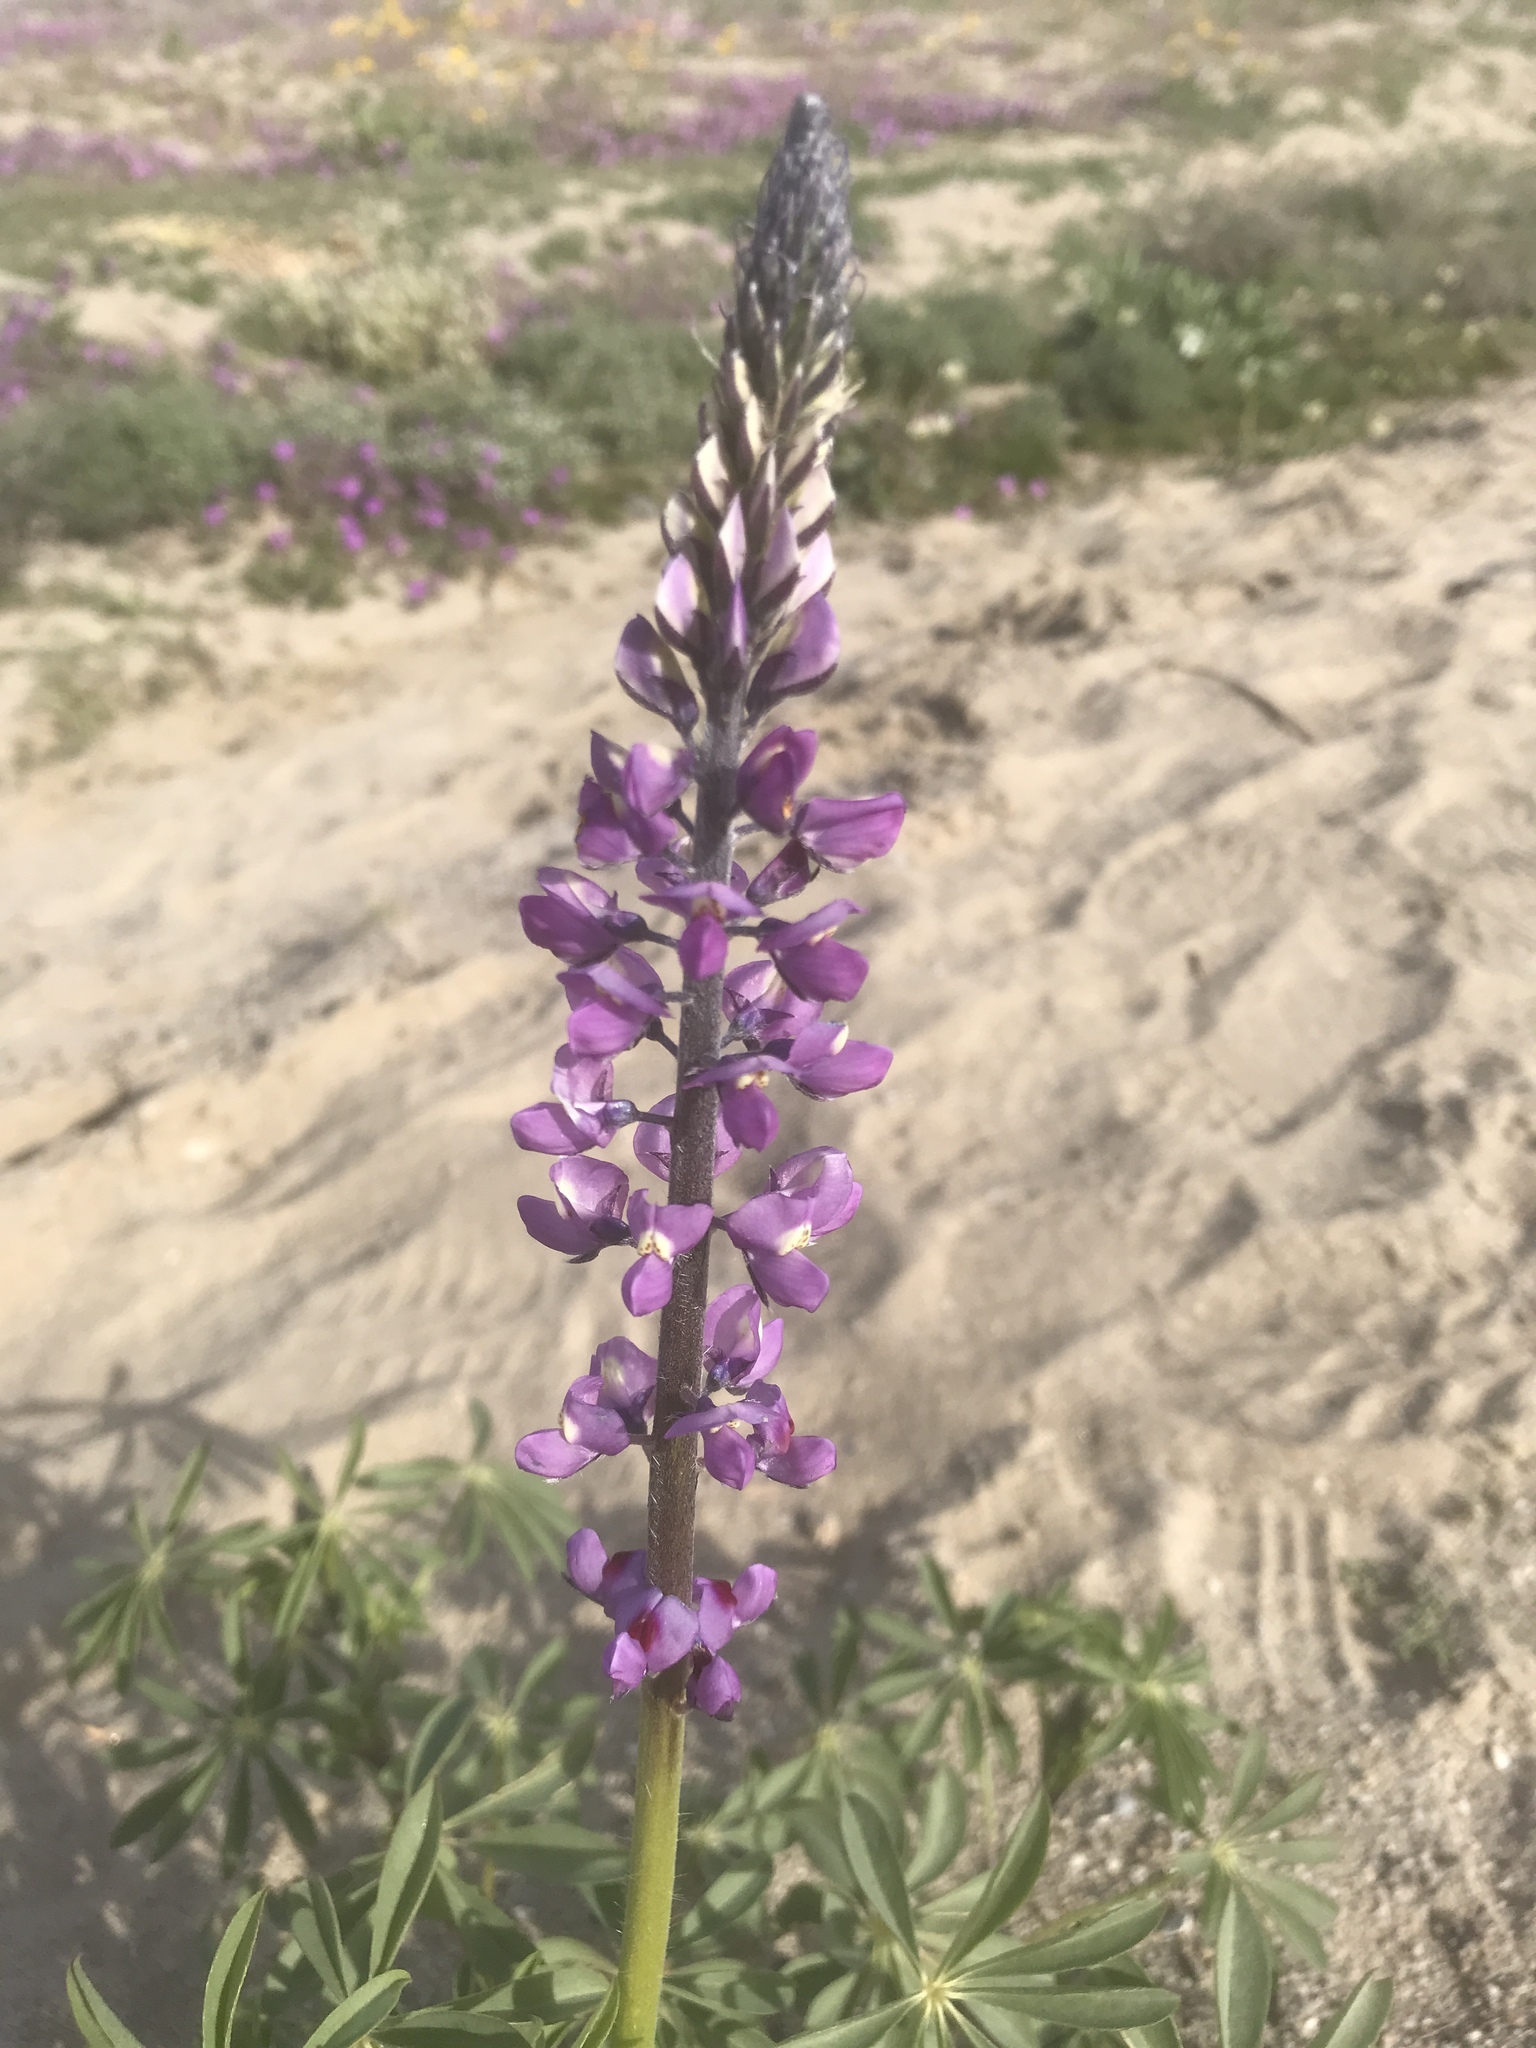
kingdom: Plantae
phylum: Tracheophyta
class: Magnoliopsida
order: Fabales
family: Fabaceae
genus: Lupinus
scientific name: Lupinus arizonicus
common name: Arizona lupine
